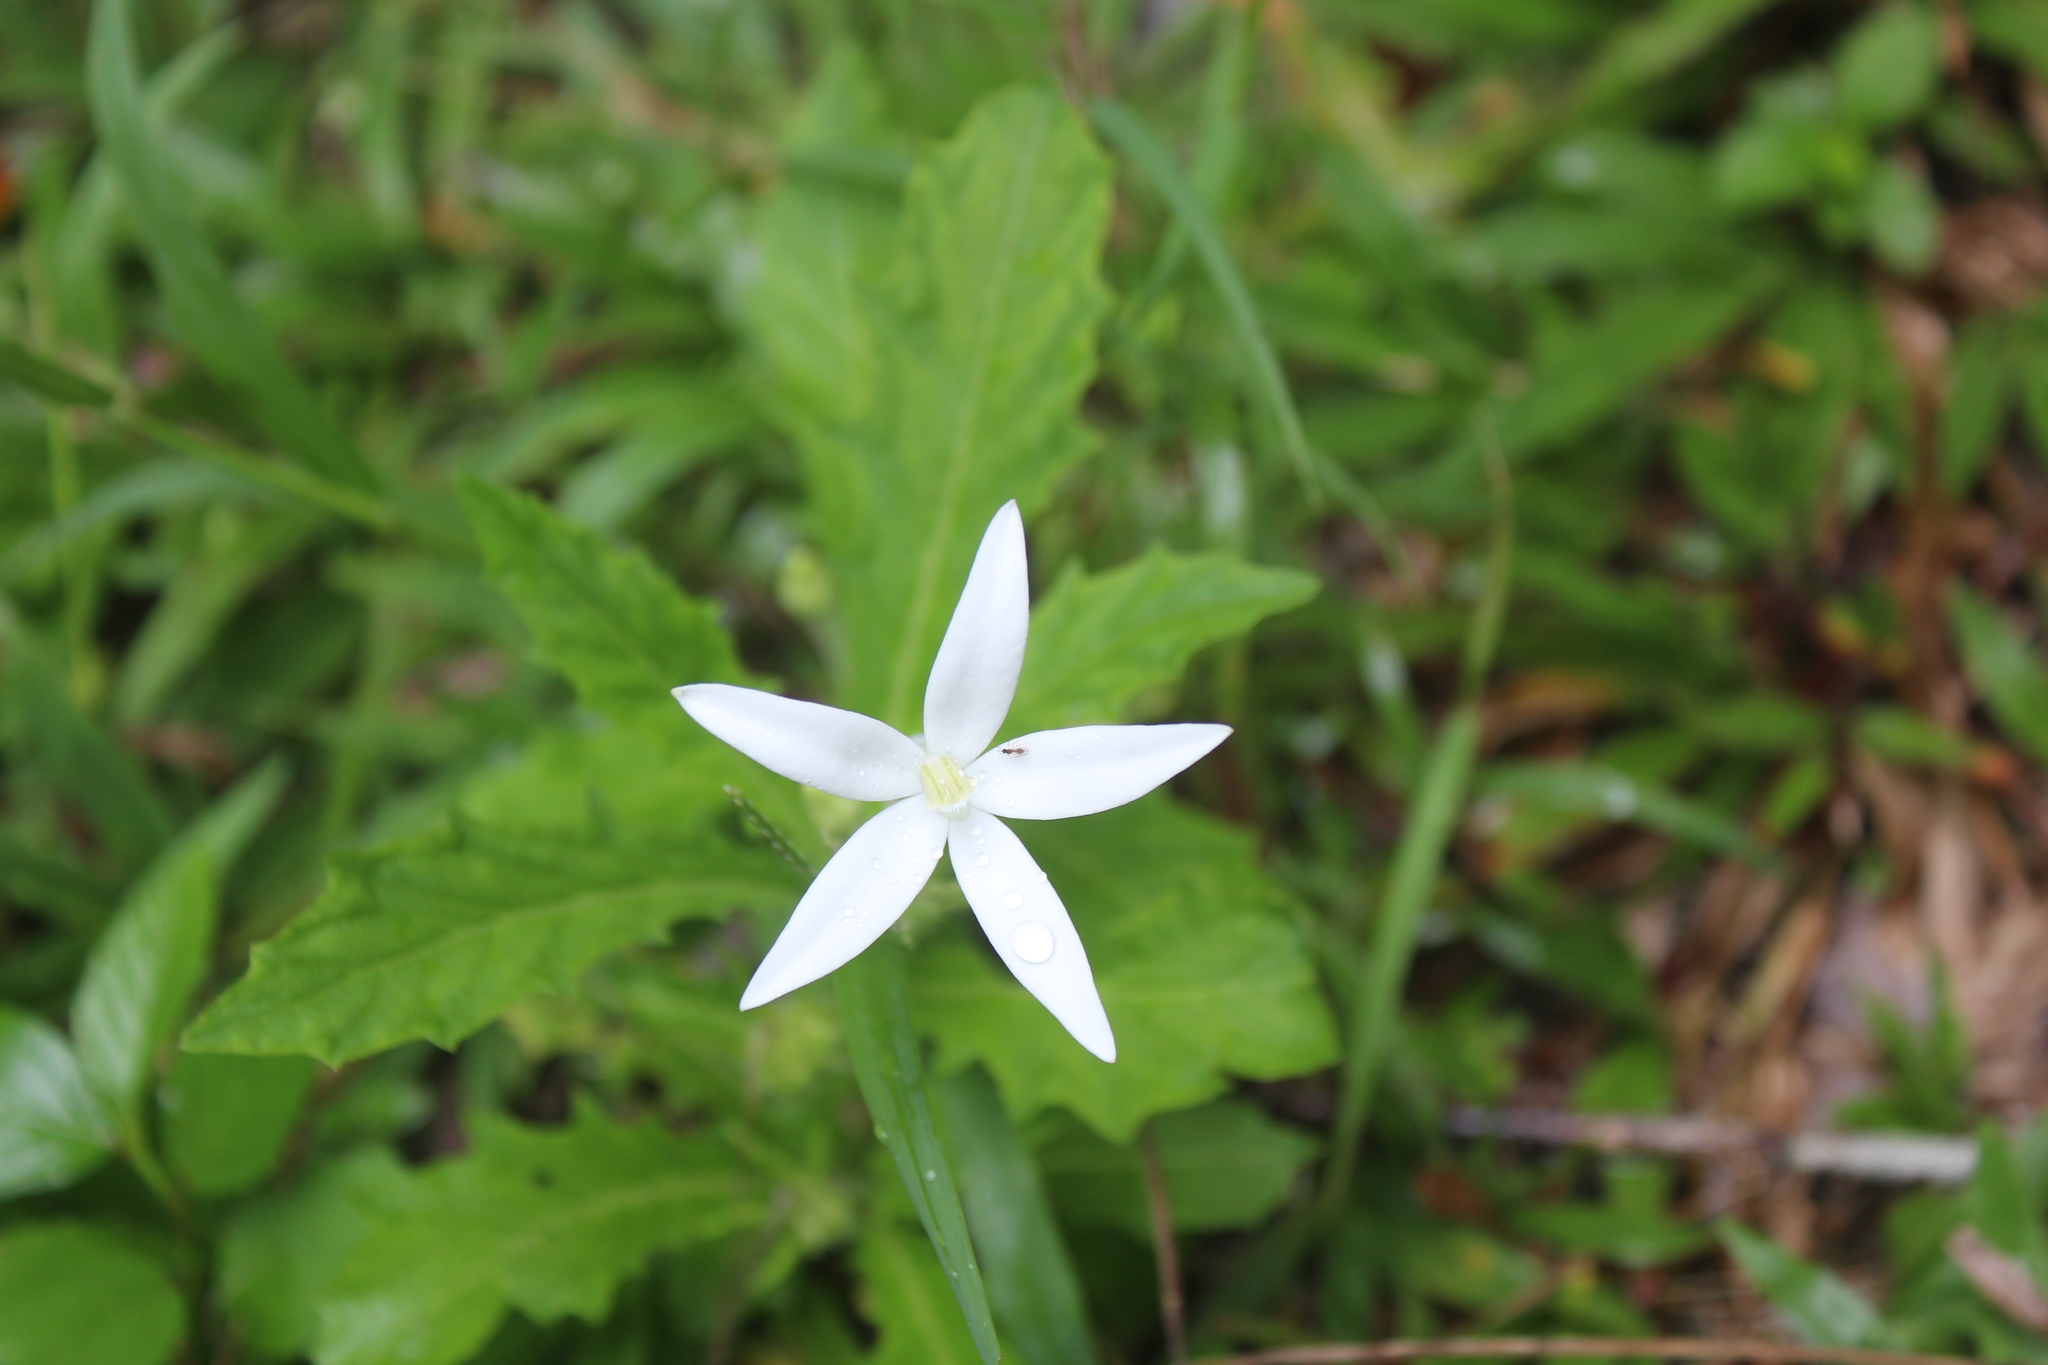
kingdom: Plantae
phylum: Tracheophyta
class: Magnoliopsida
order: Asterales
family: Campanulaceae
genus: Hippobroma
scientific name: Hippobroma longiflora
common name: Madamfate
